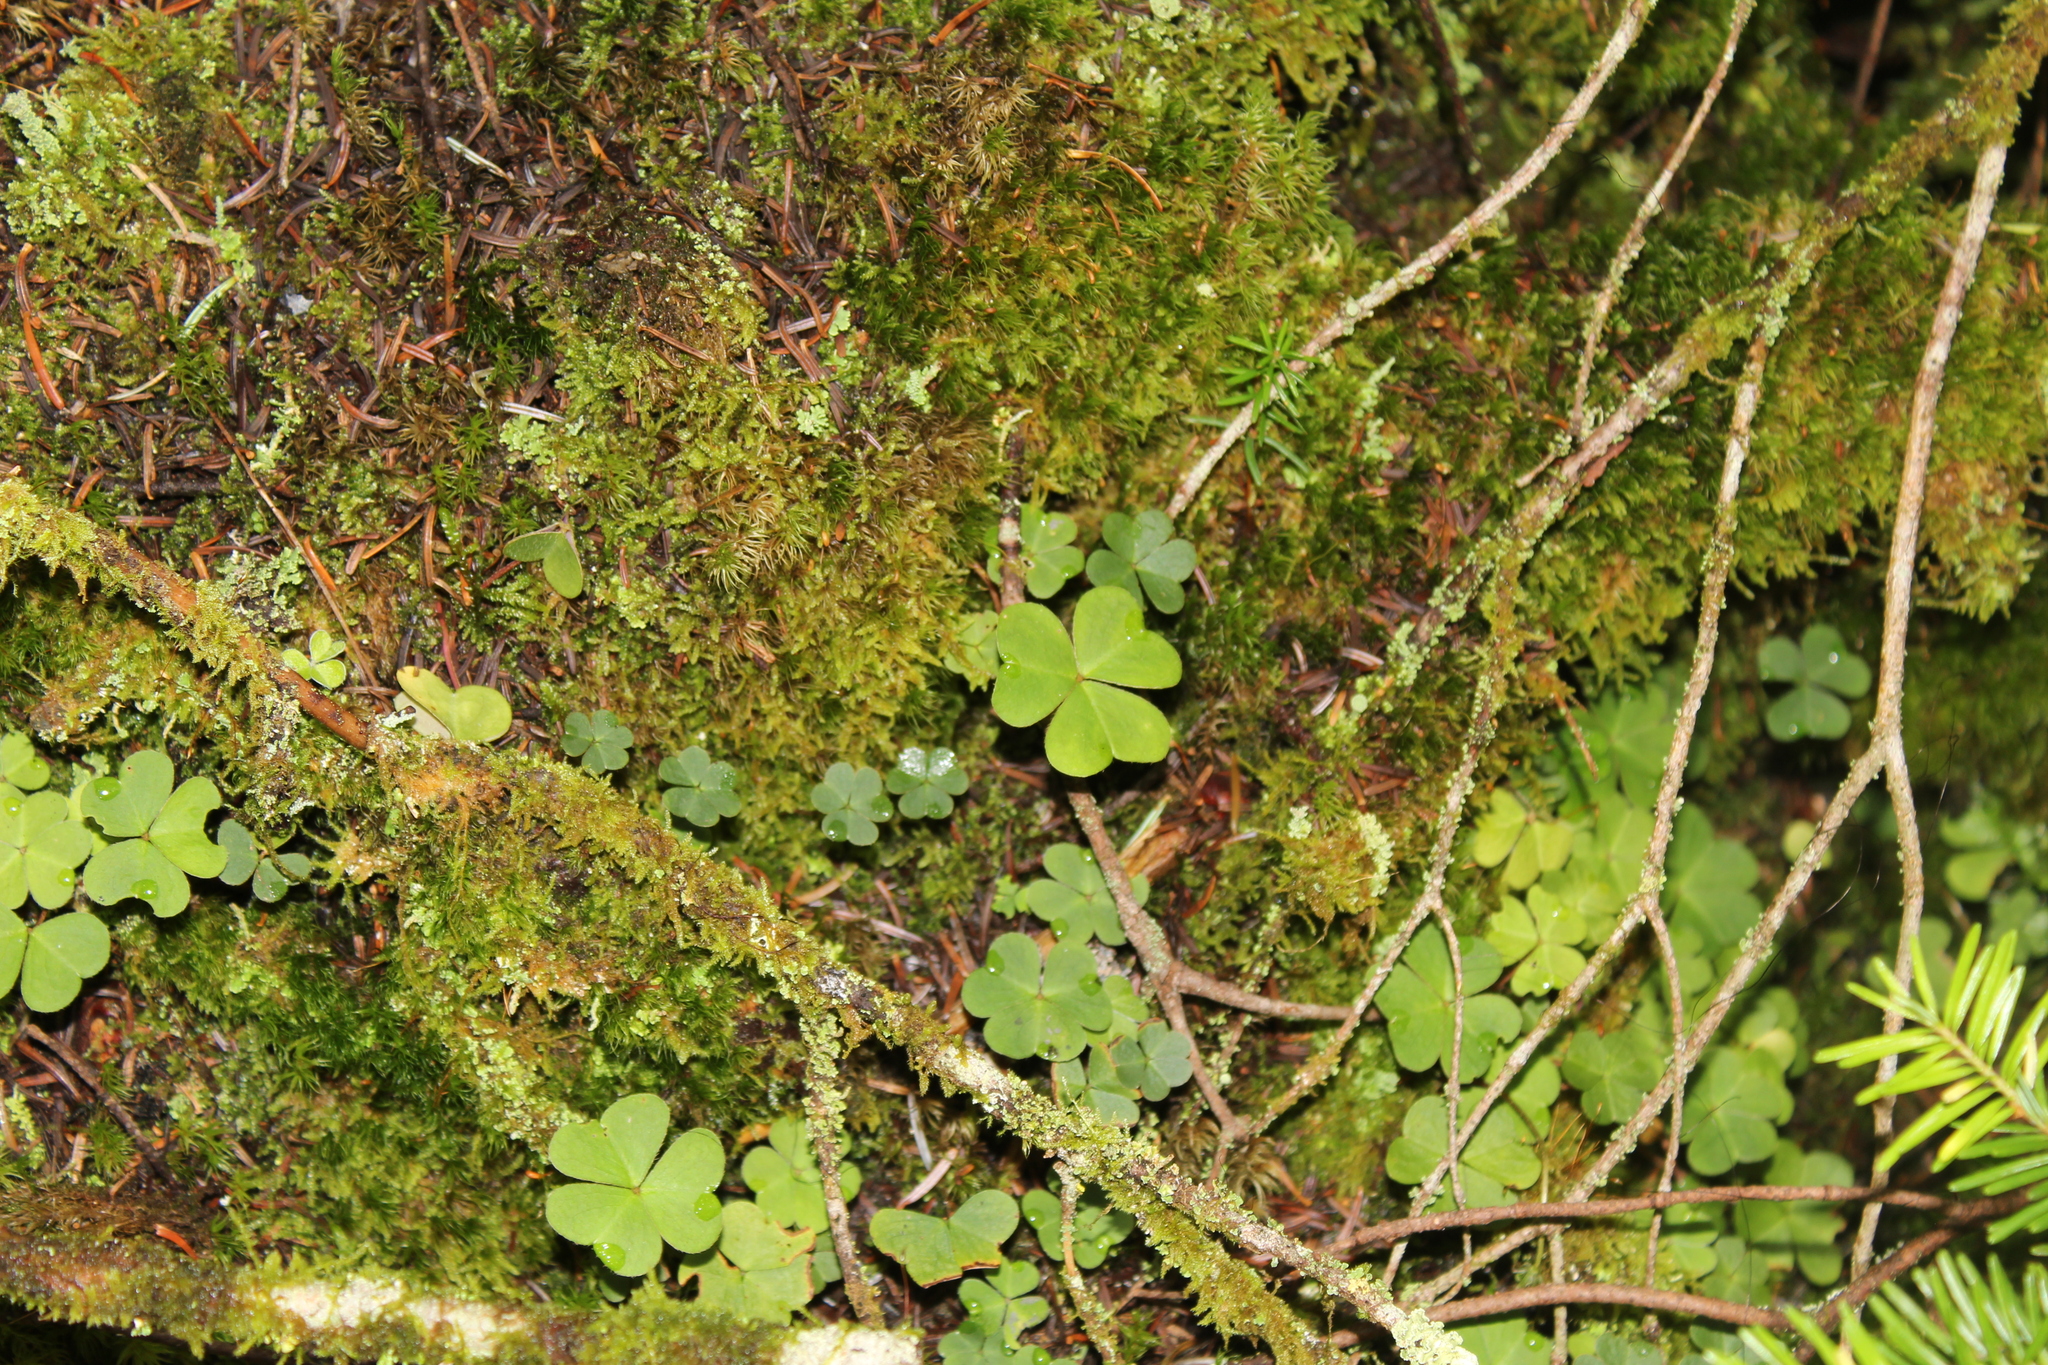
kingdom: Plantae
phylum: Tracheophyta
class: Magnoliopsida
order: Oxalidales
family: Oxalidaceae
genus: Oxalis
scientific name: Oxalis montana
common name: American wood-sorrel
